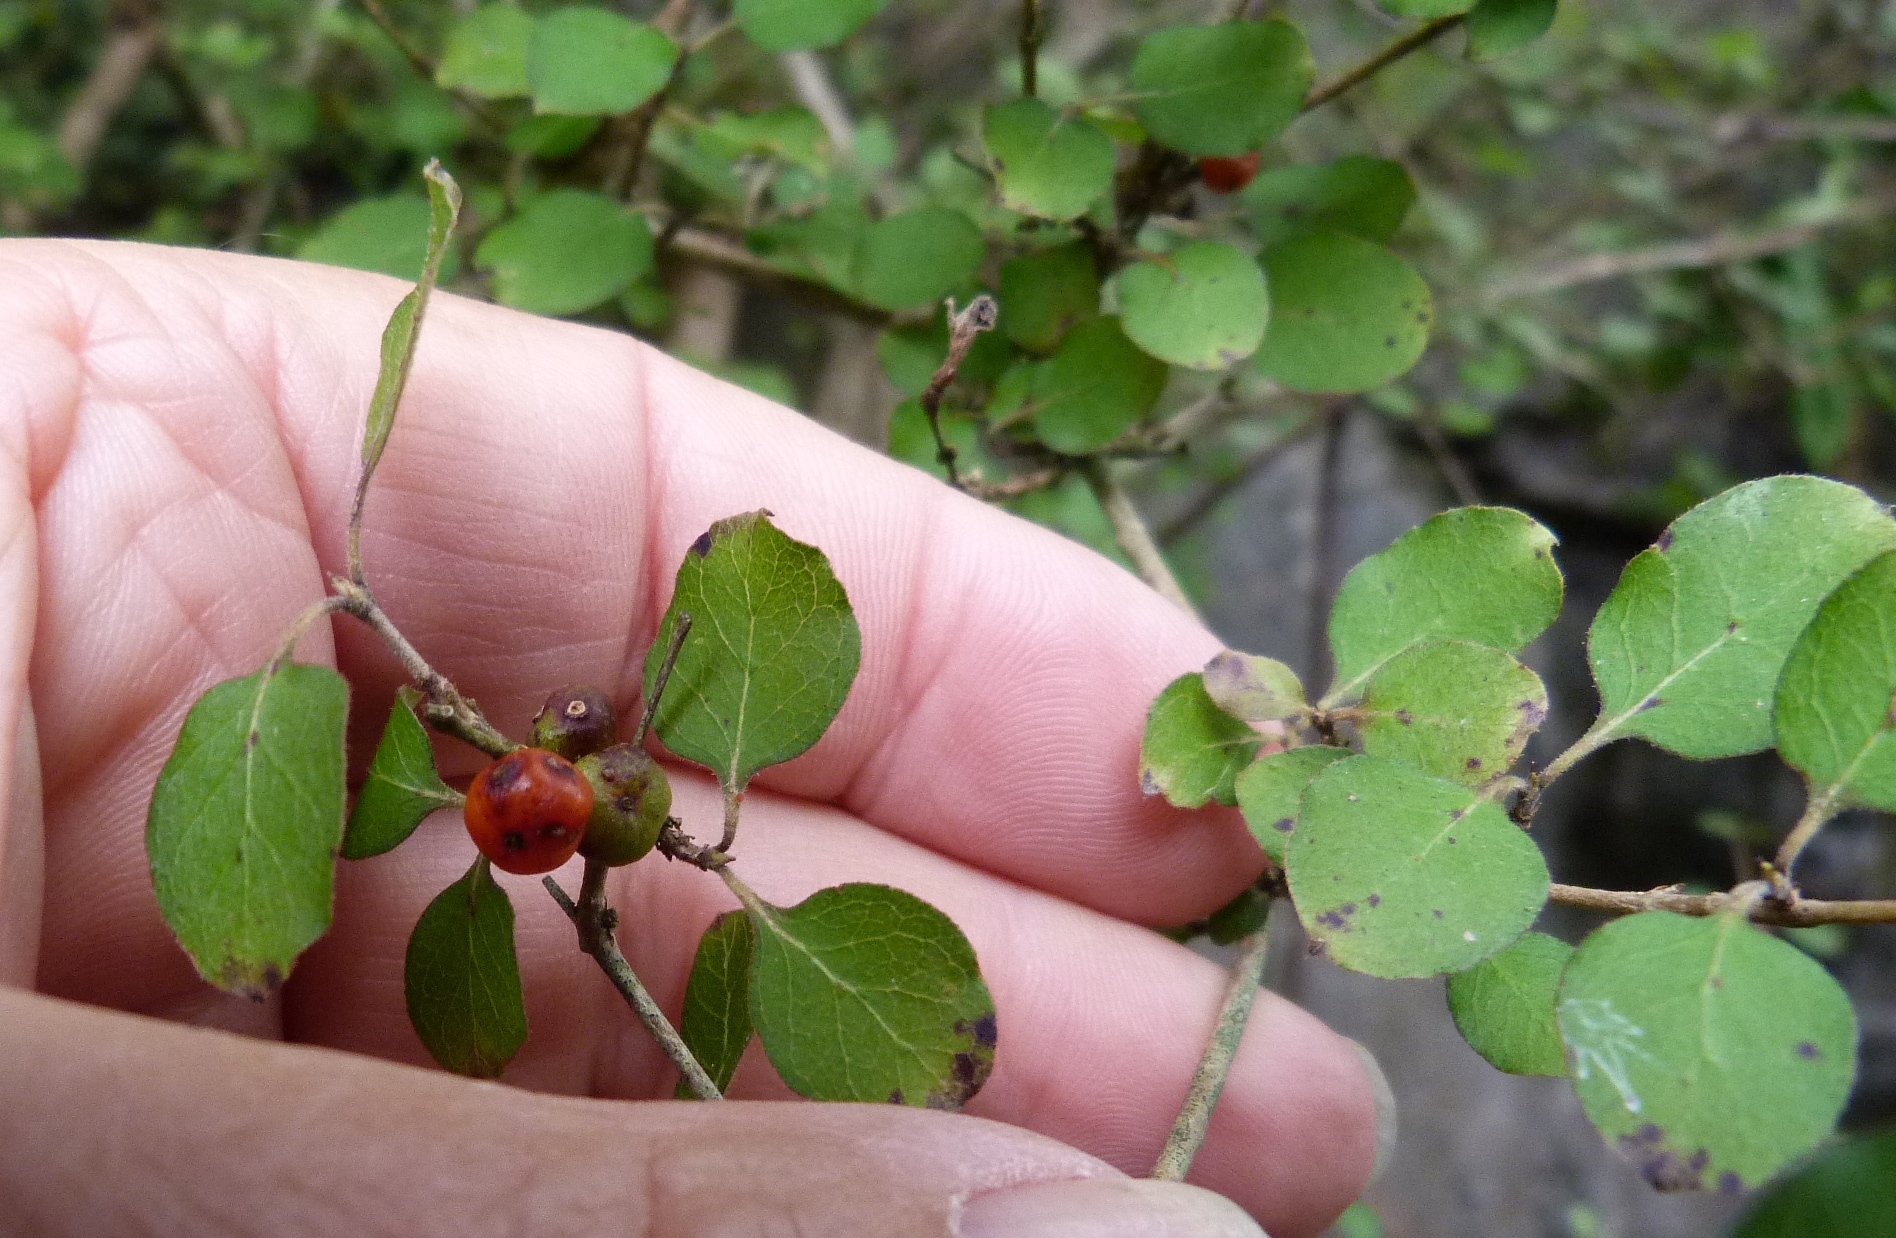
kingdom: Plantae
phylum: Tracheophyta
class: Magnoliopsida
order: Gentianales
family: Rubiaceae
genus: Coprosma
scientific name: Coprosma rotundifolia
